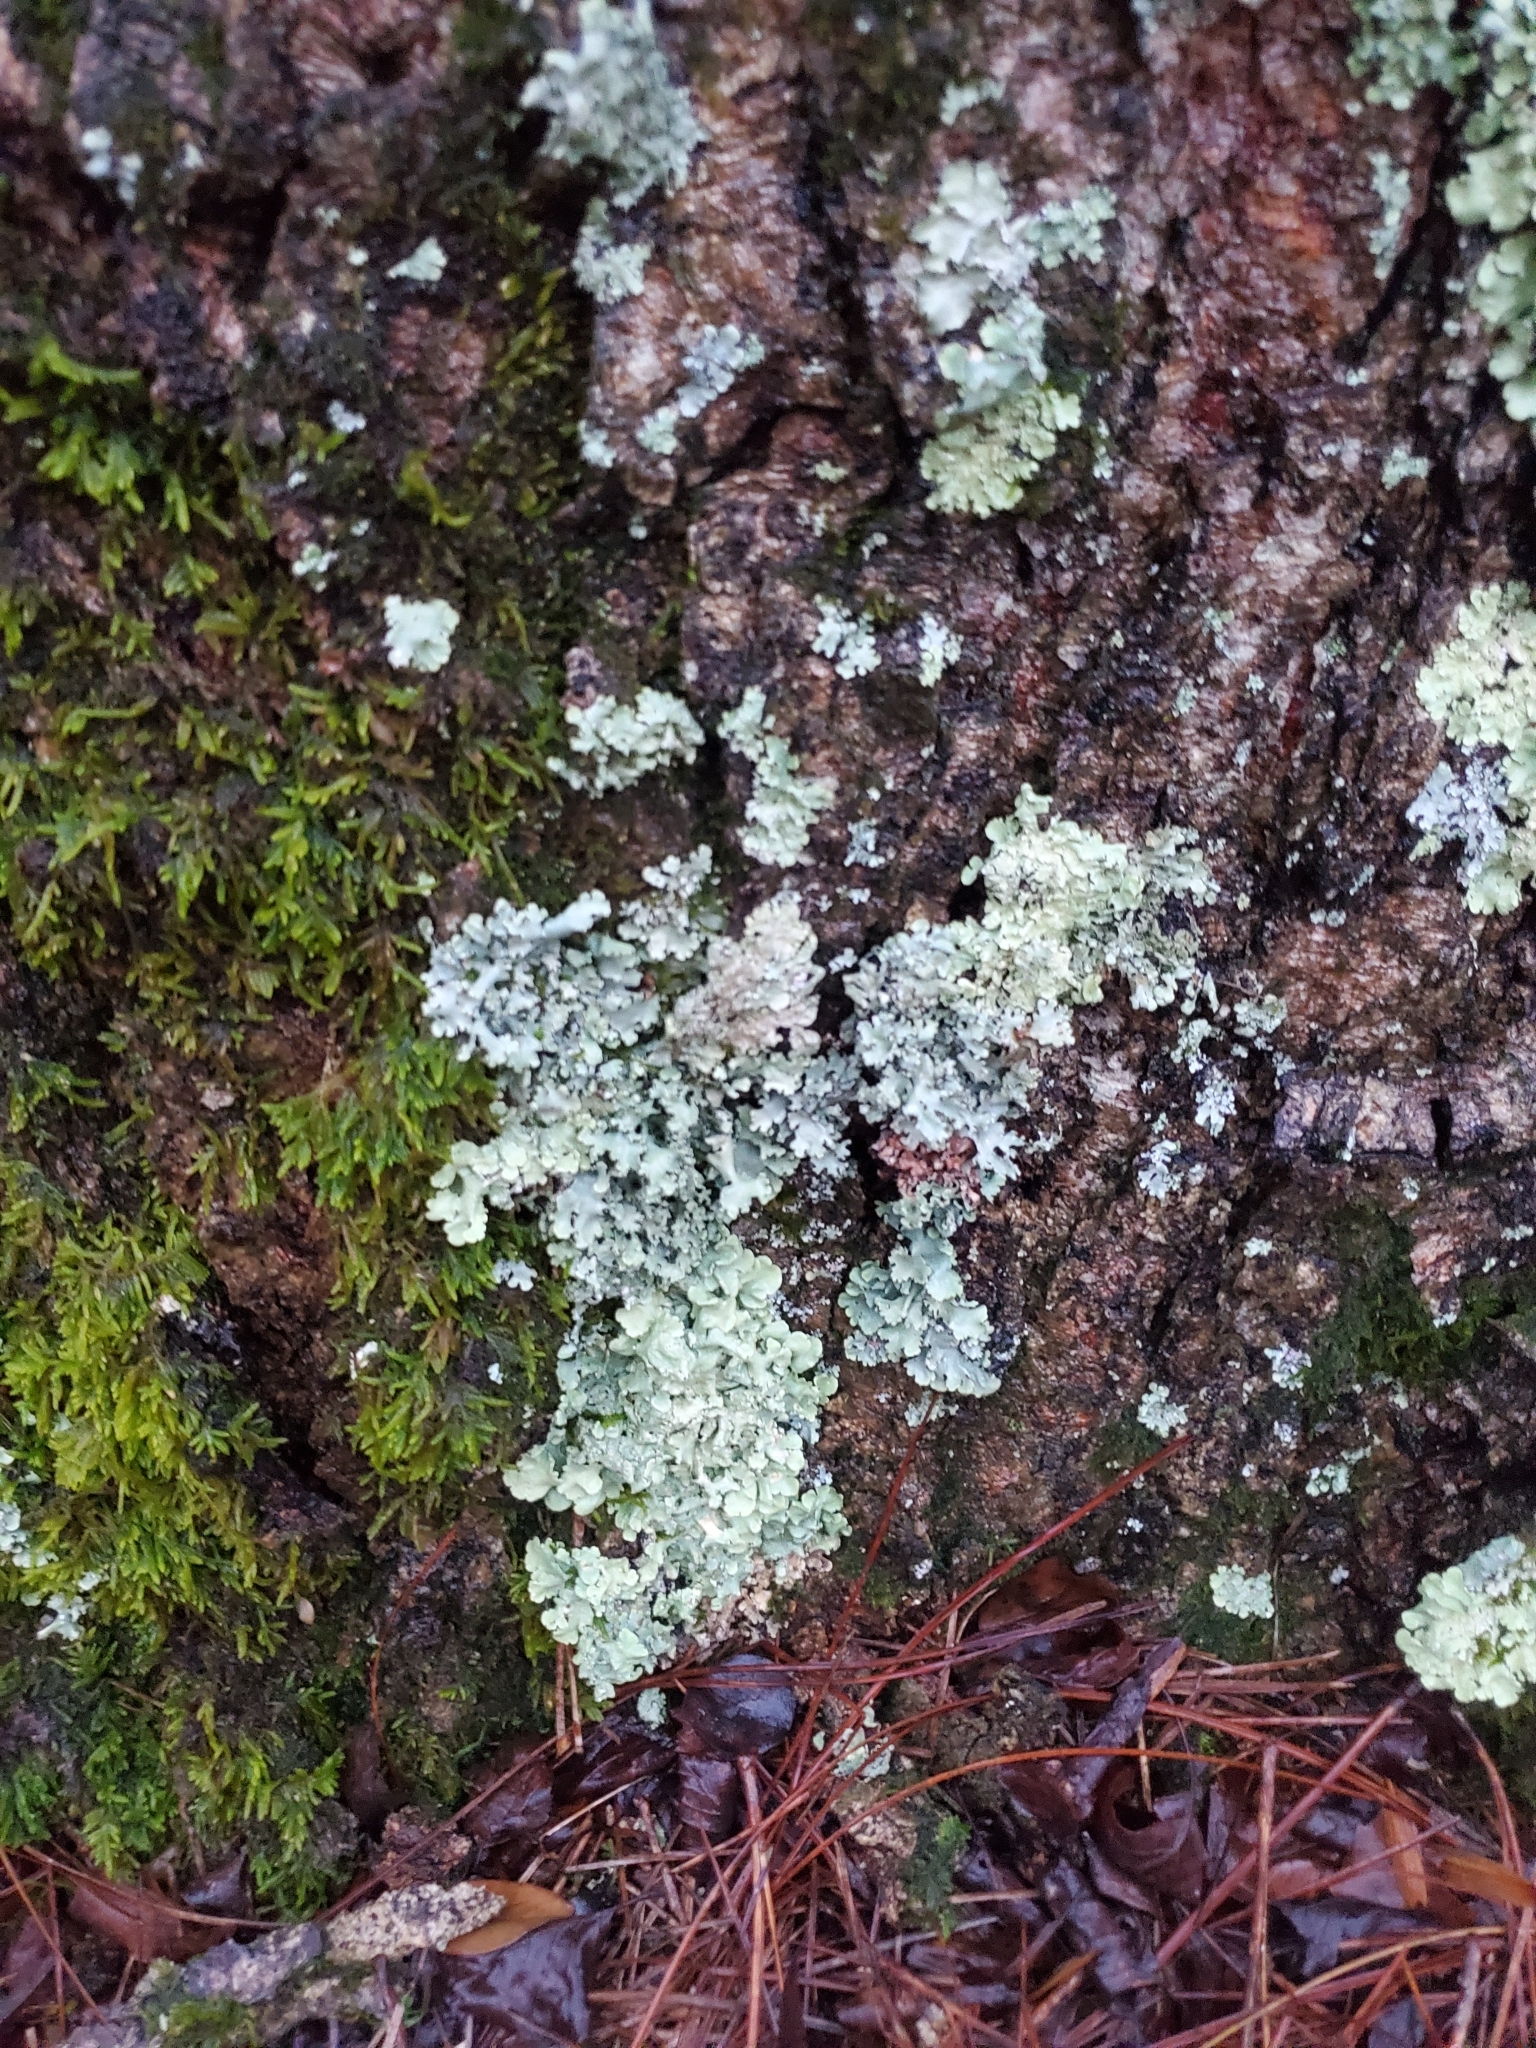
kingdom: Fungi
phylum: Ascomycota
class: Lecanoromycetes
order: Lecanorales
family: Parmeliaceae
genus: Flavoparmelia
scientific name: Flavoparmelia caperata
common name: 40-mile per hour lichen
